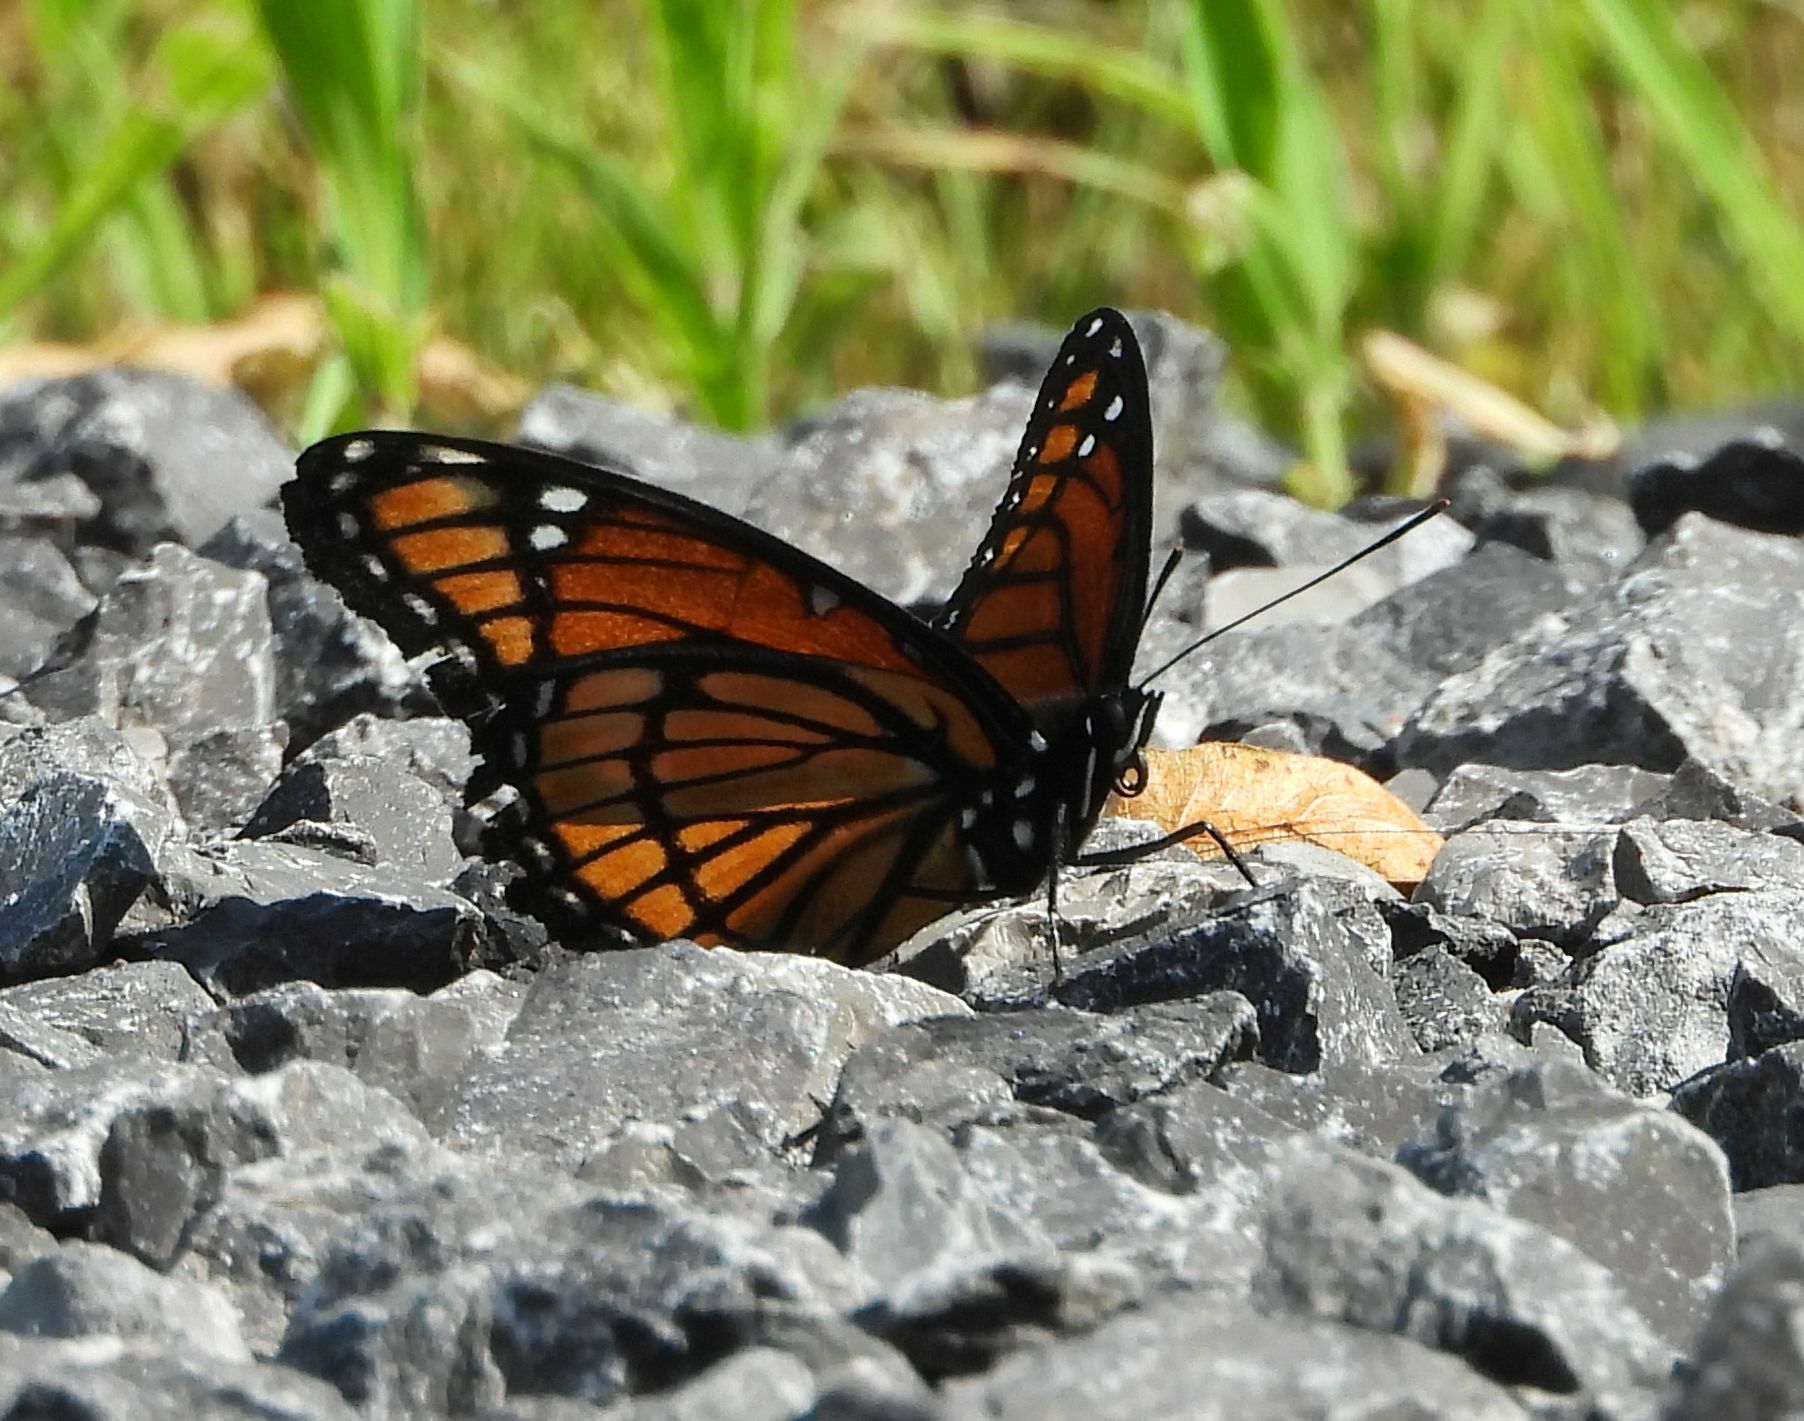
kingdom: Animalia
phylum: Arthropoda
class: Insecta
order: Lepidoptera
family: Nymphalidae
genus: Limenitis
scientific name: Limenitis archippus
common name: Viceroy
